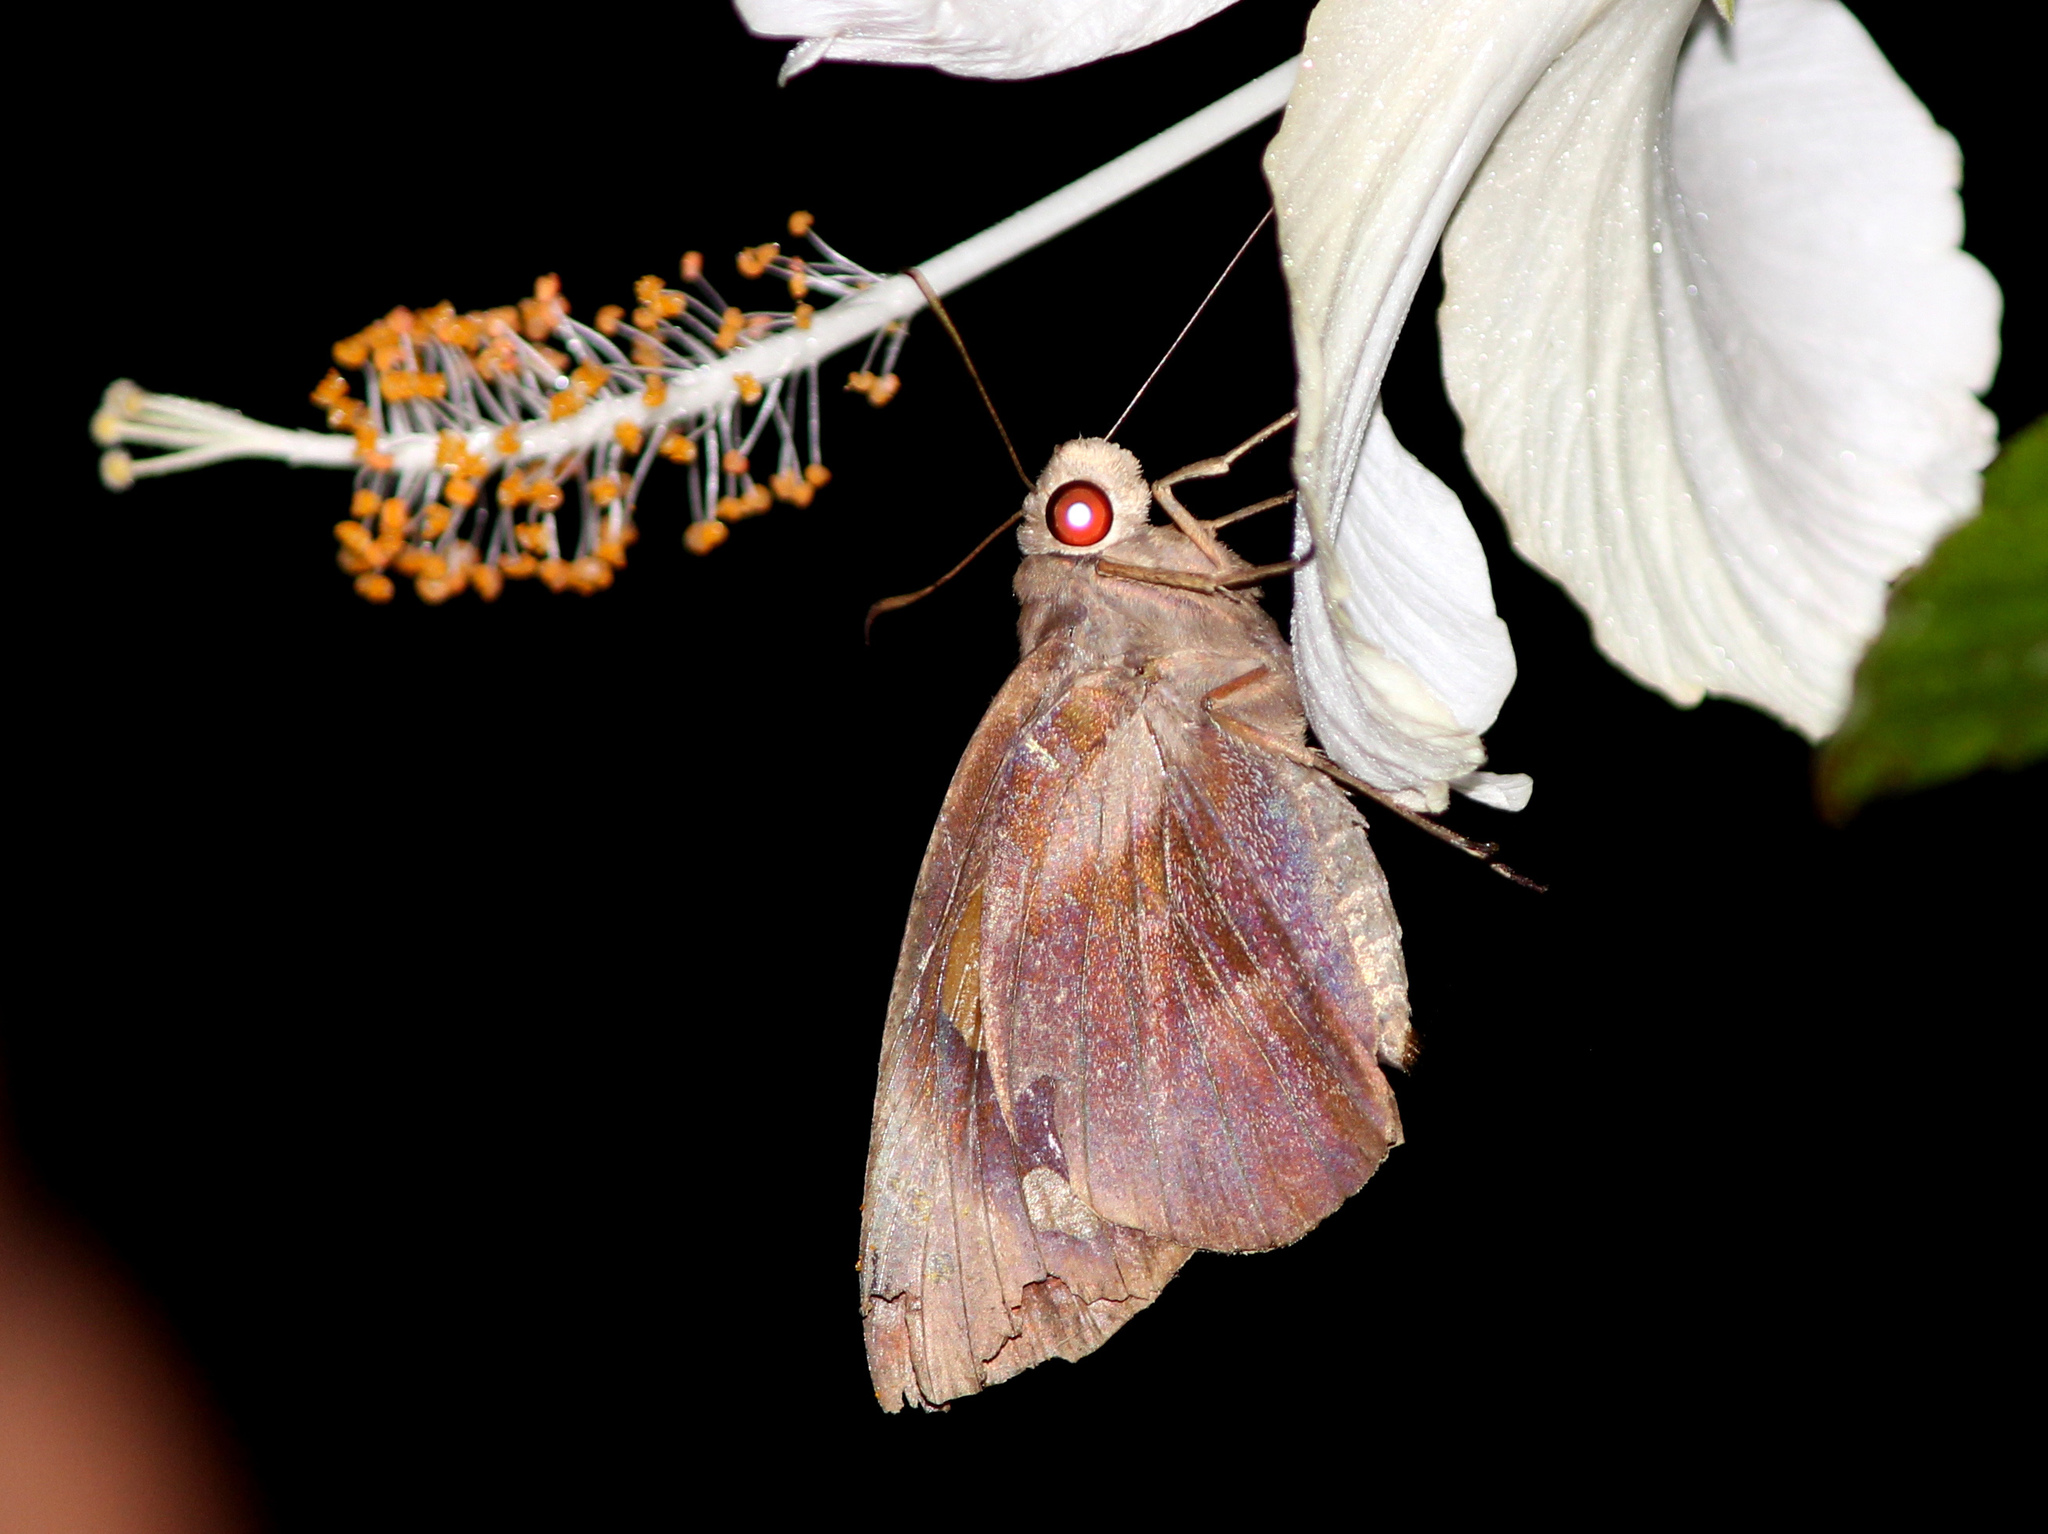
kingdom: Animalia
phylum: Arthropoda
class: Insecta
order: Lepidoptera
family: Hesperiidae
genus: Gangara
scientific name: Gangara thyrsis
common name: Giant redeye
